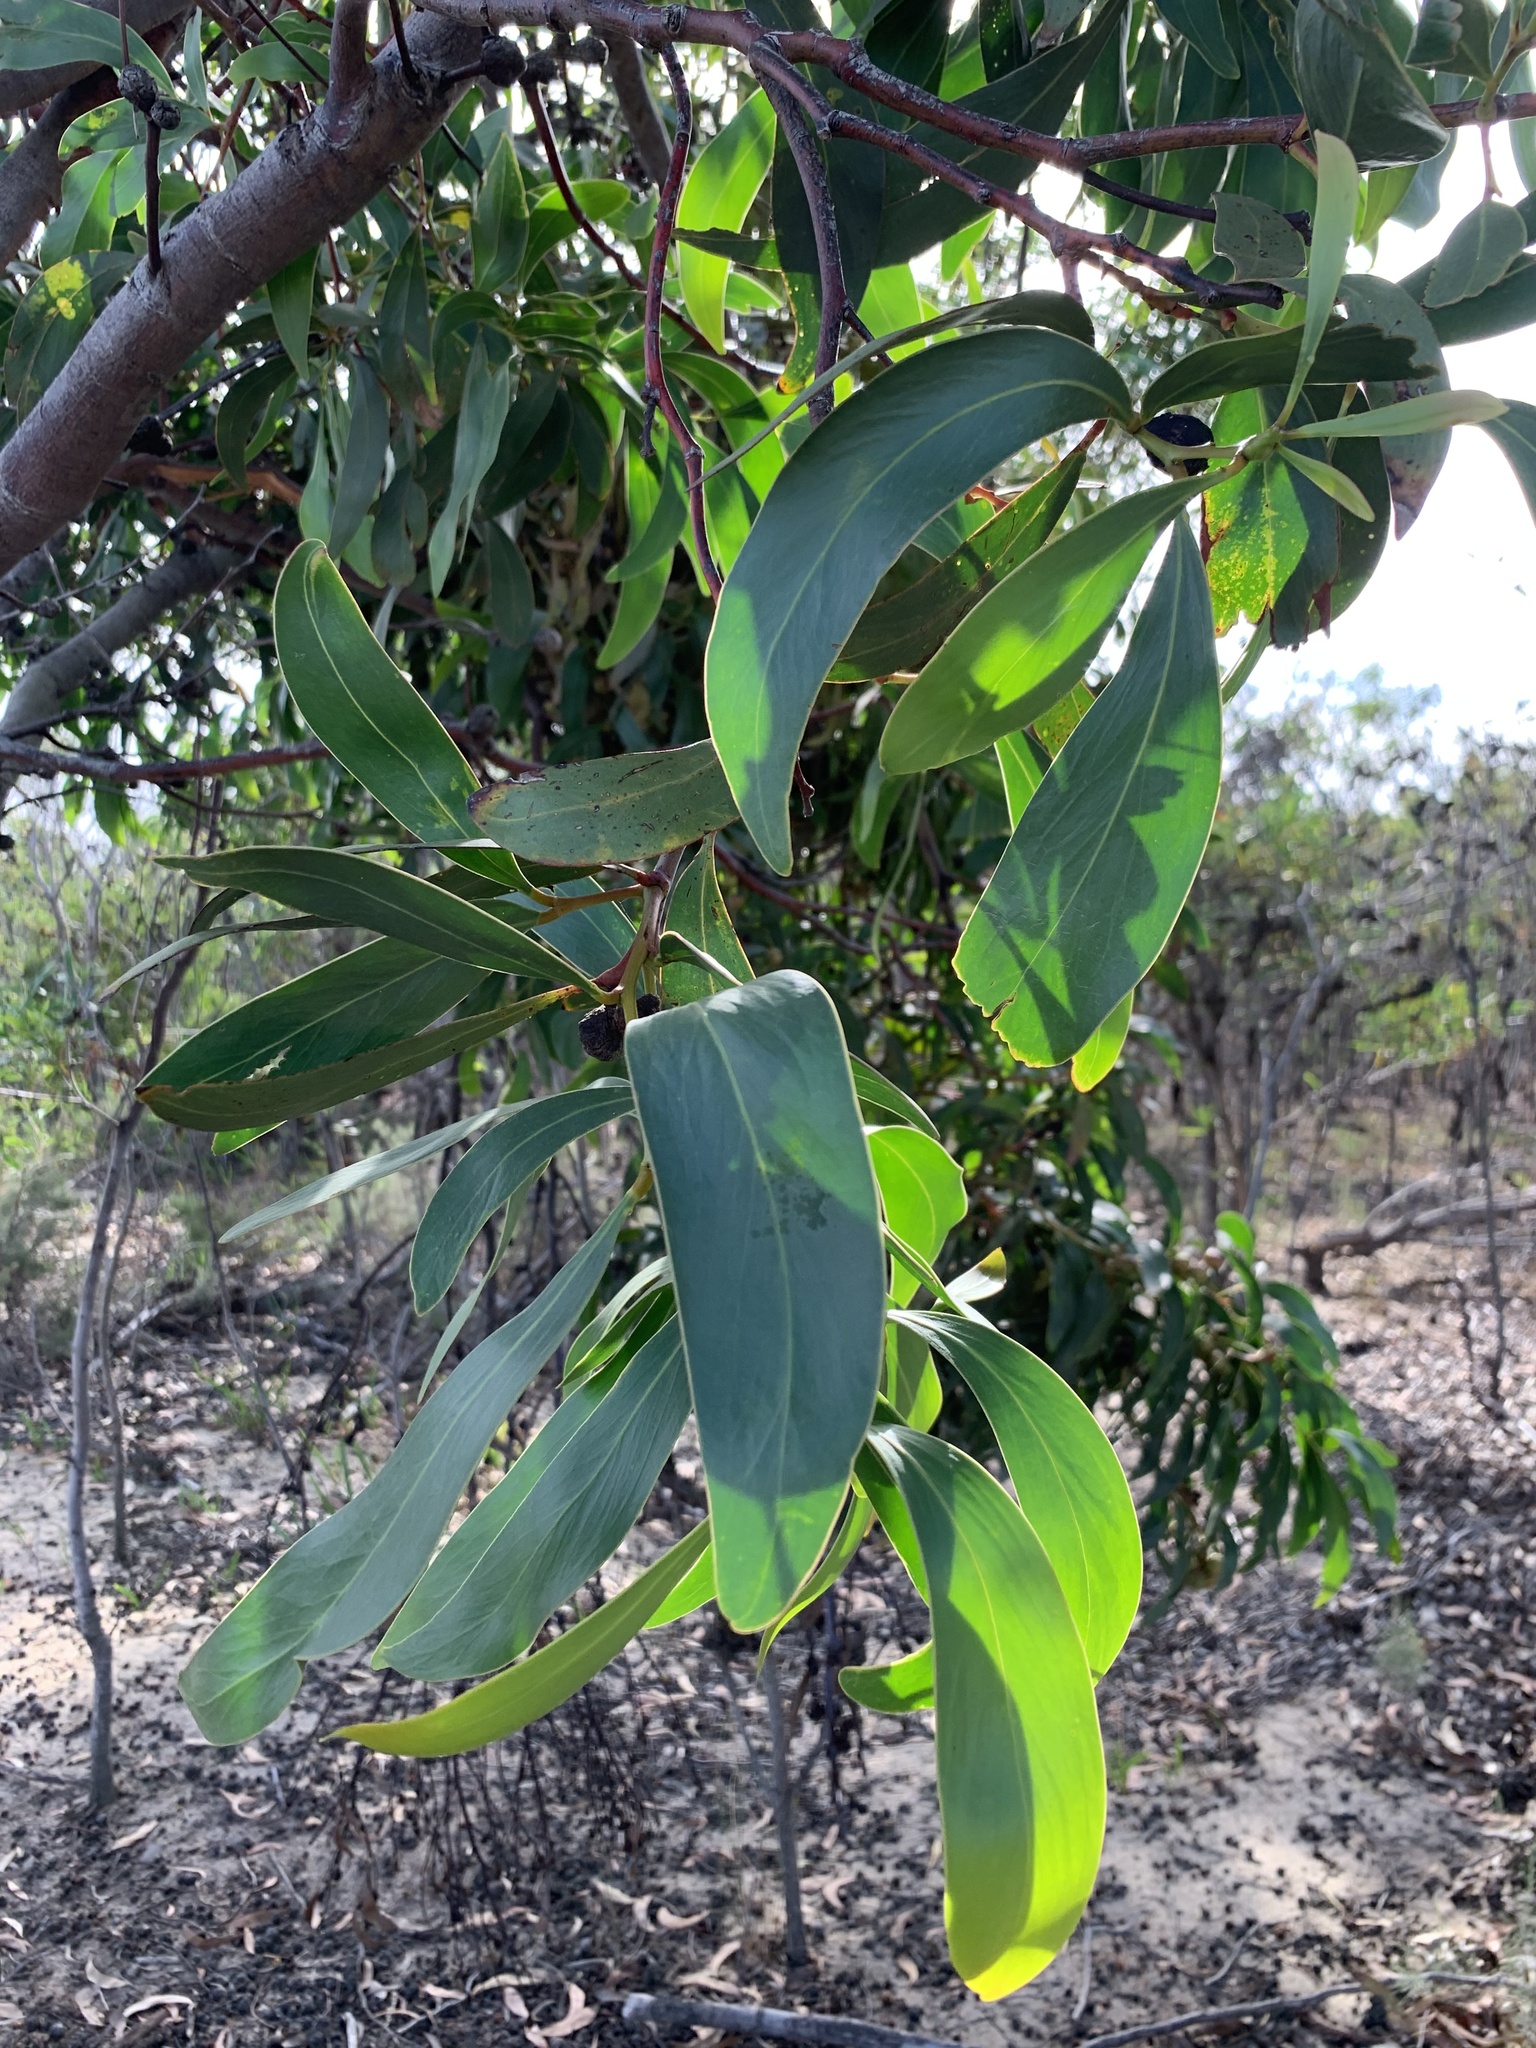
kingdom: Plantae
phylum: Tracheophyta
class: Magnoliopsida
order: Fabales
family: Fabaceae
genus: Acacia
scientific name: Acacia pycnantha
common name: Golden wattle
